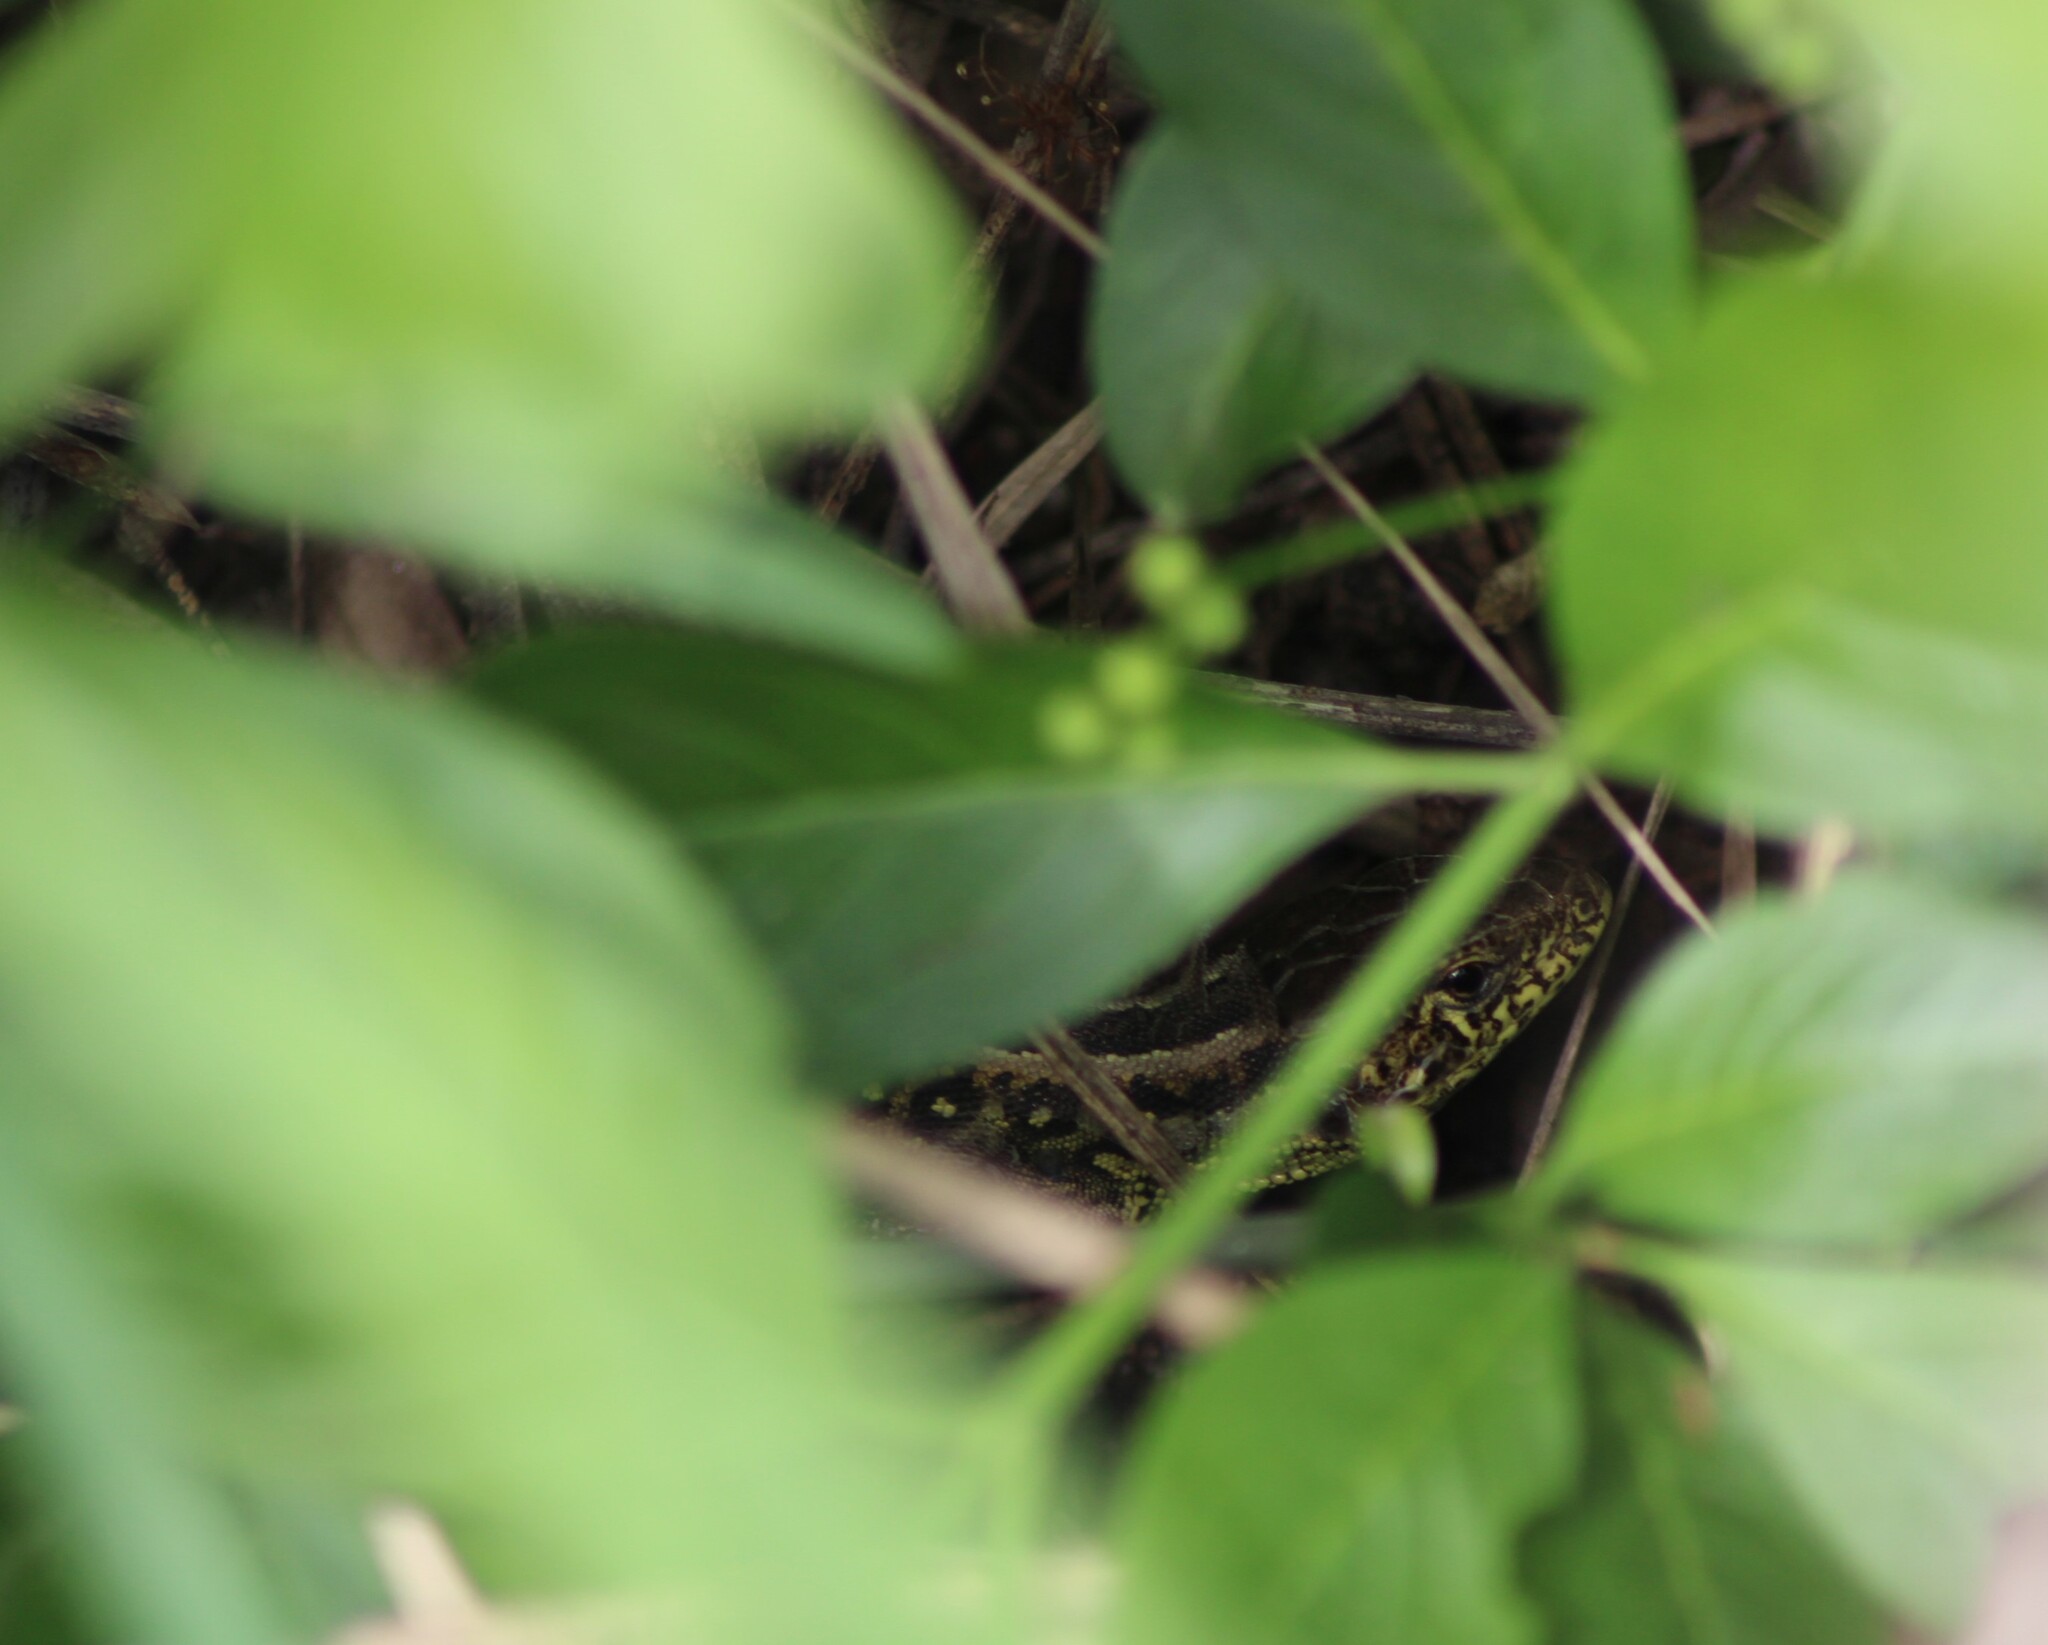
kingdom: Animalia
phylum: Chordata
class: Squamata
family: Lacertidae
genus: Lacerta
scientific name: Lacerta agilis
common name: Sand lizard
